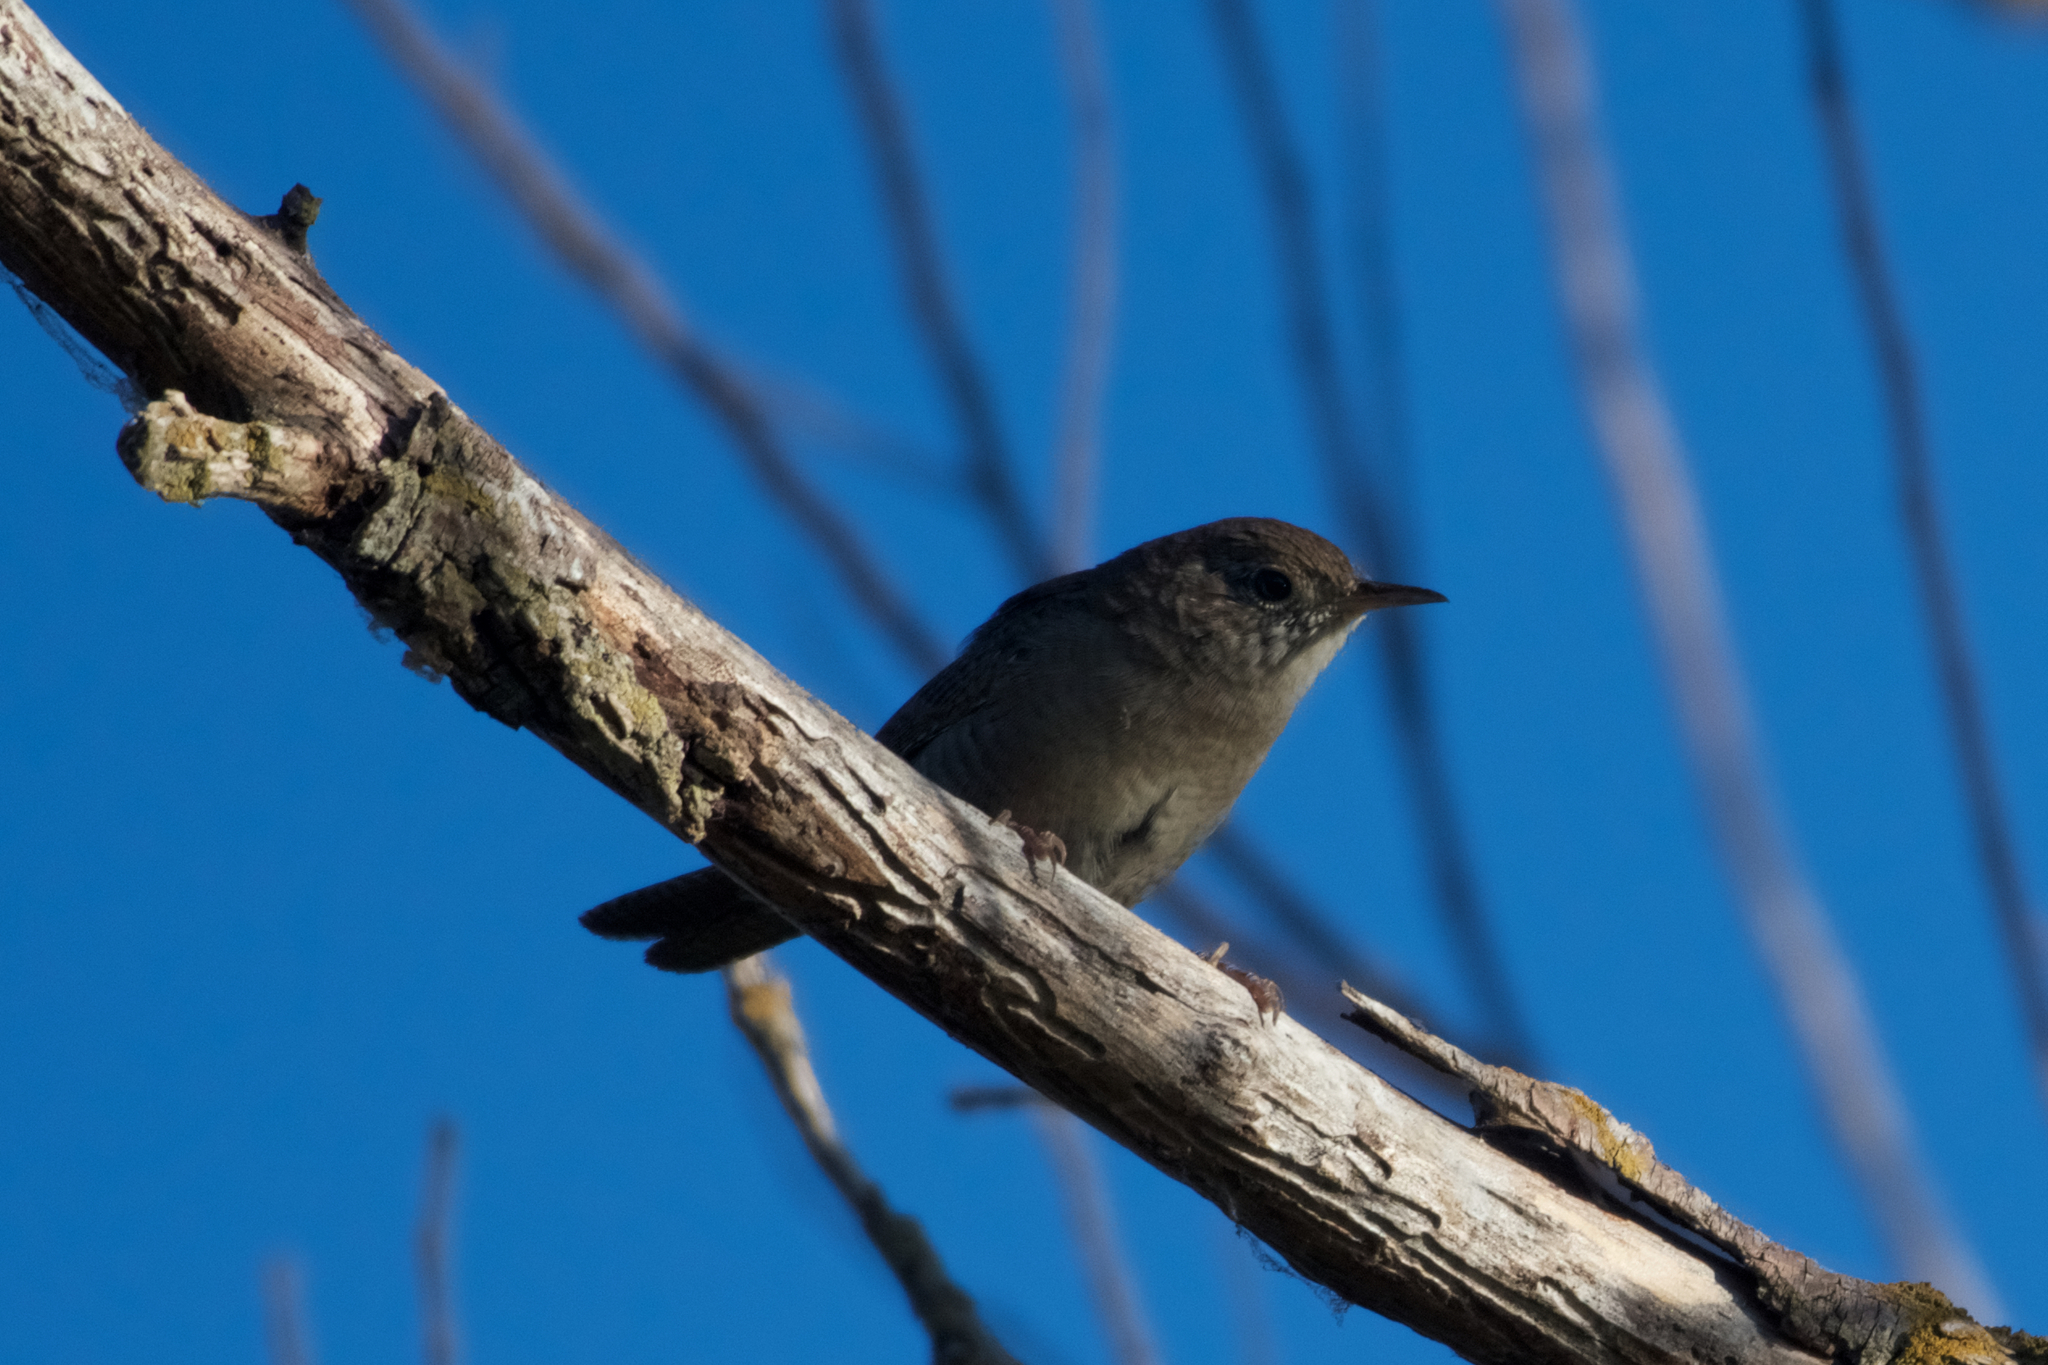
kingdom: Animalia
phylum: Chordata
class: Aves
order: Passeriformes
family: Troglodytidae
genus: Troglodytes
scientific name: Troglodytes aedon
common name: House wren
